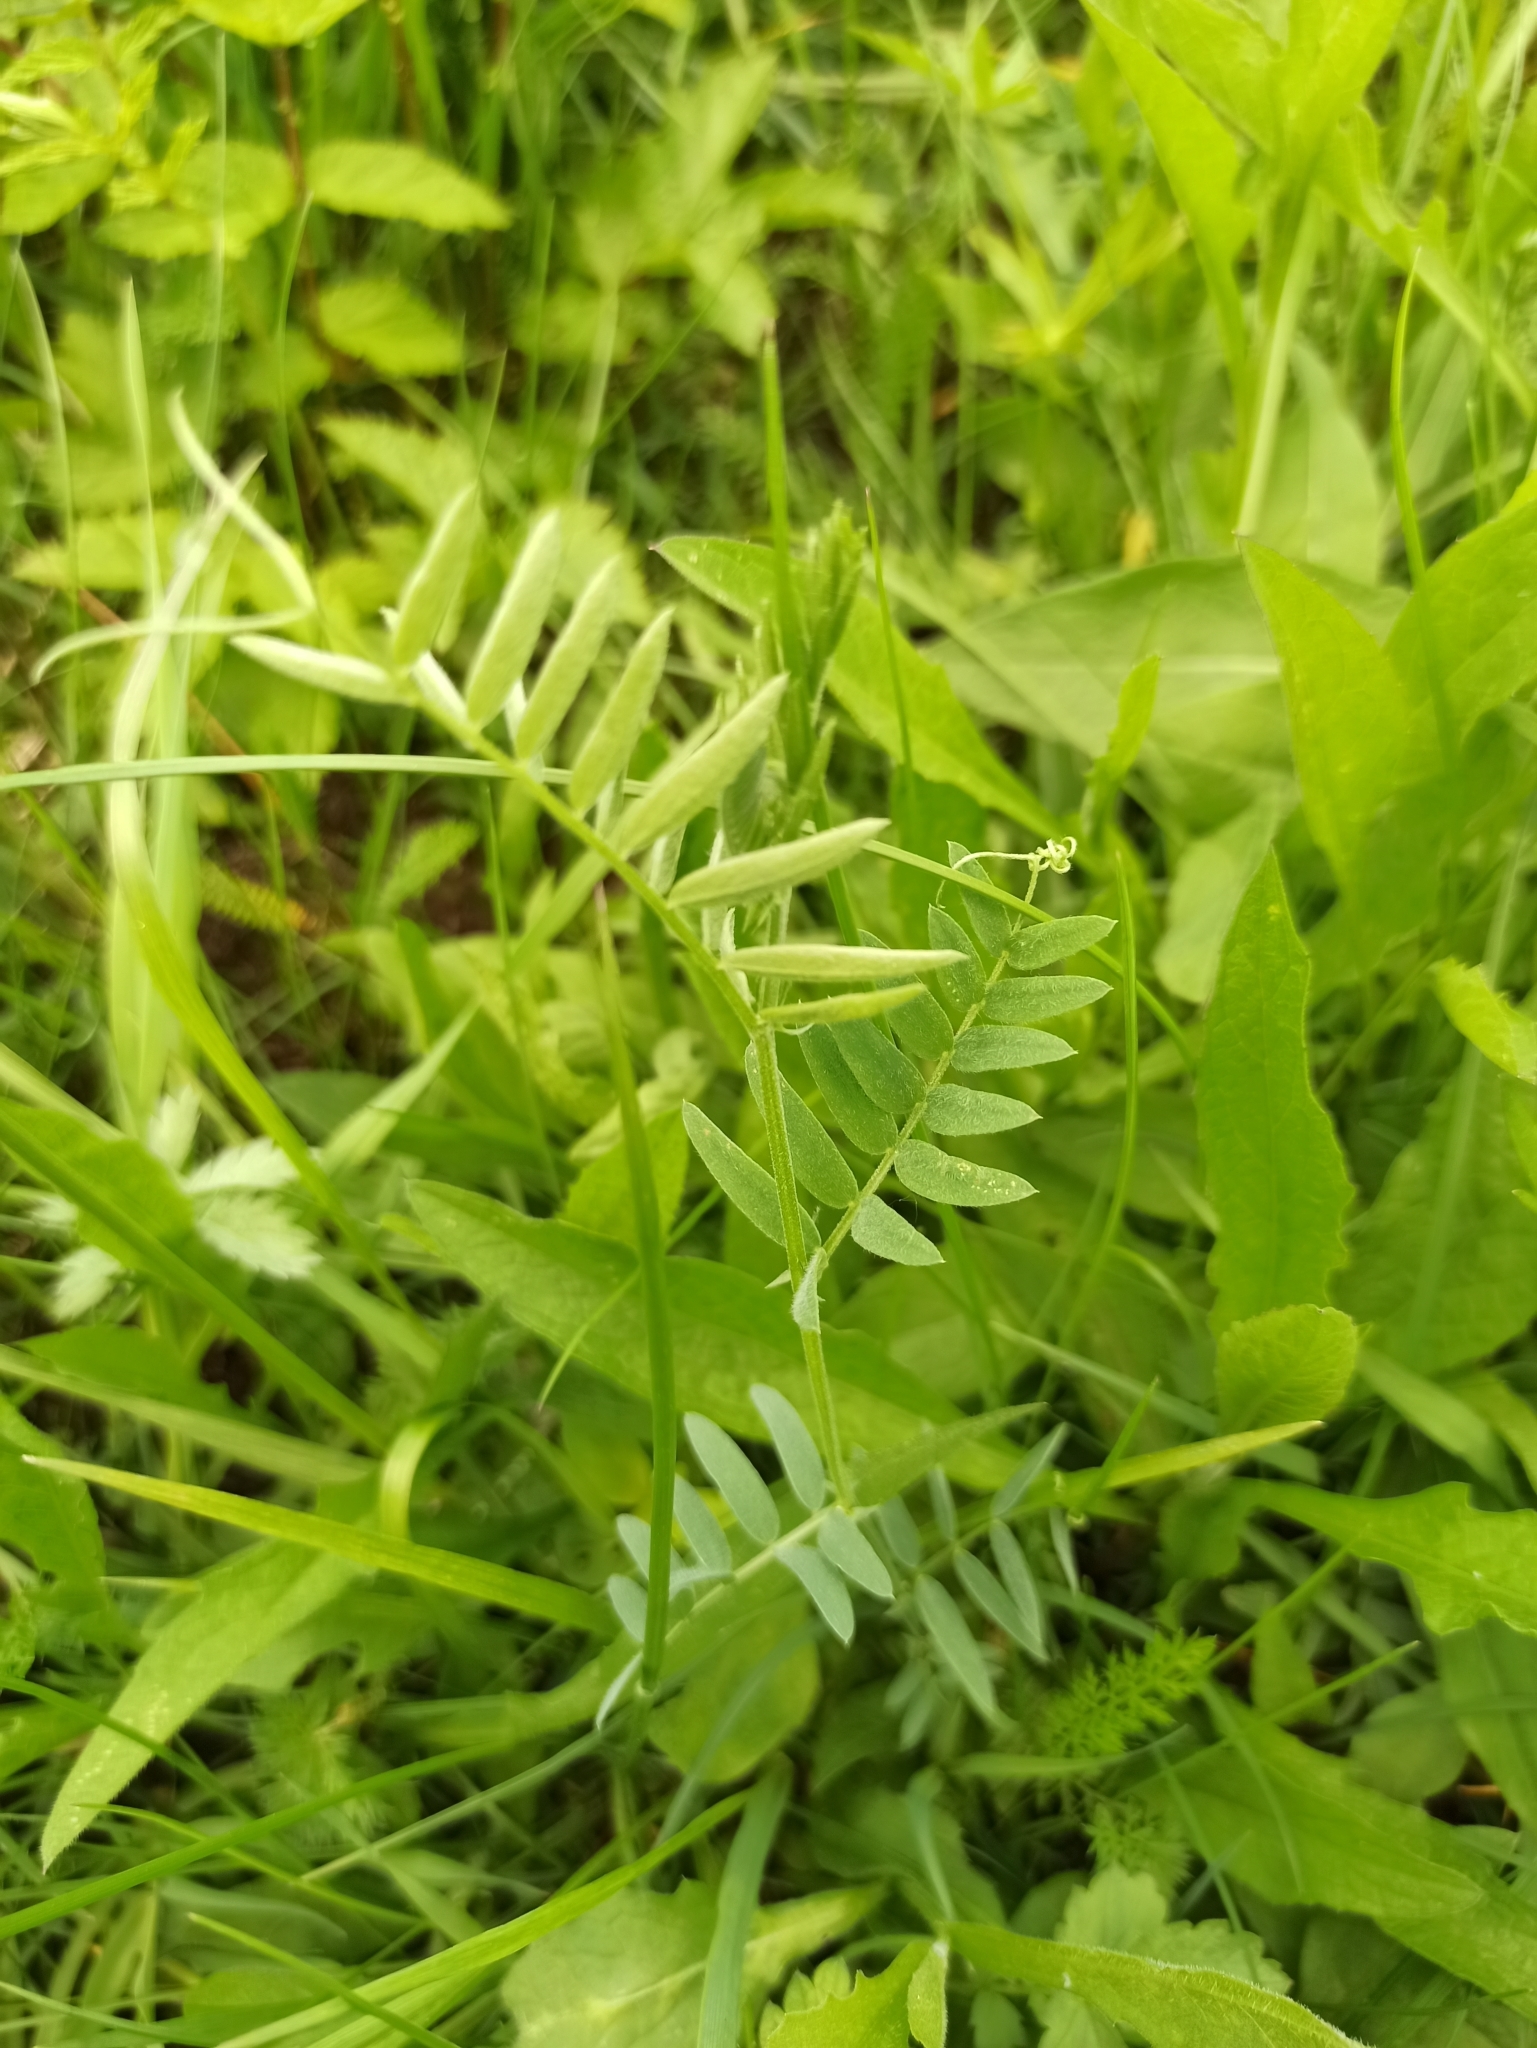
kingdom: Plantae
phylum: Tracheophyta
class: Magnoliopsida
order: Fabales
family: Fabaceae
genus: Vicia
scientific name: Vicia cracca
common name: Bird vetch
